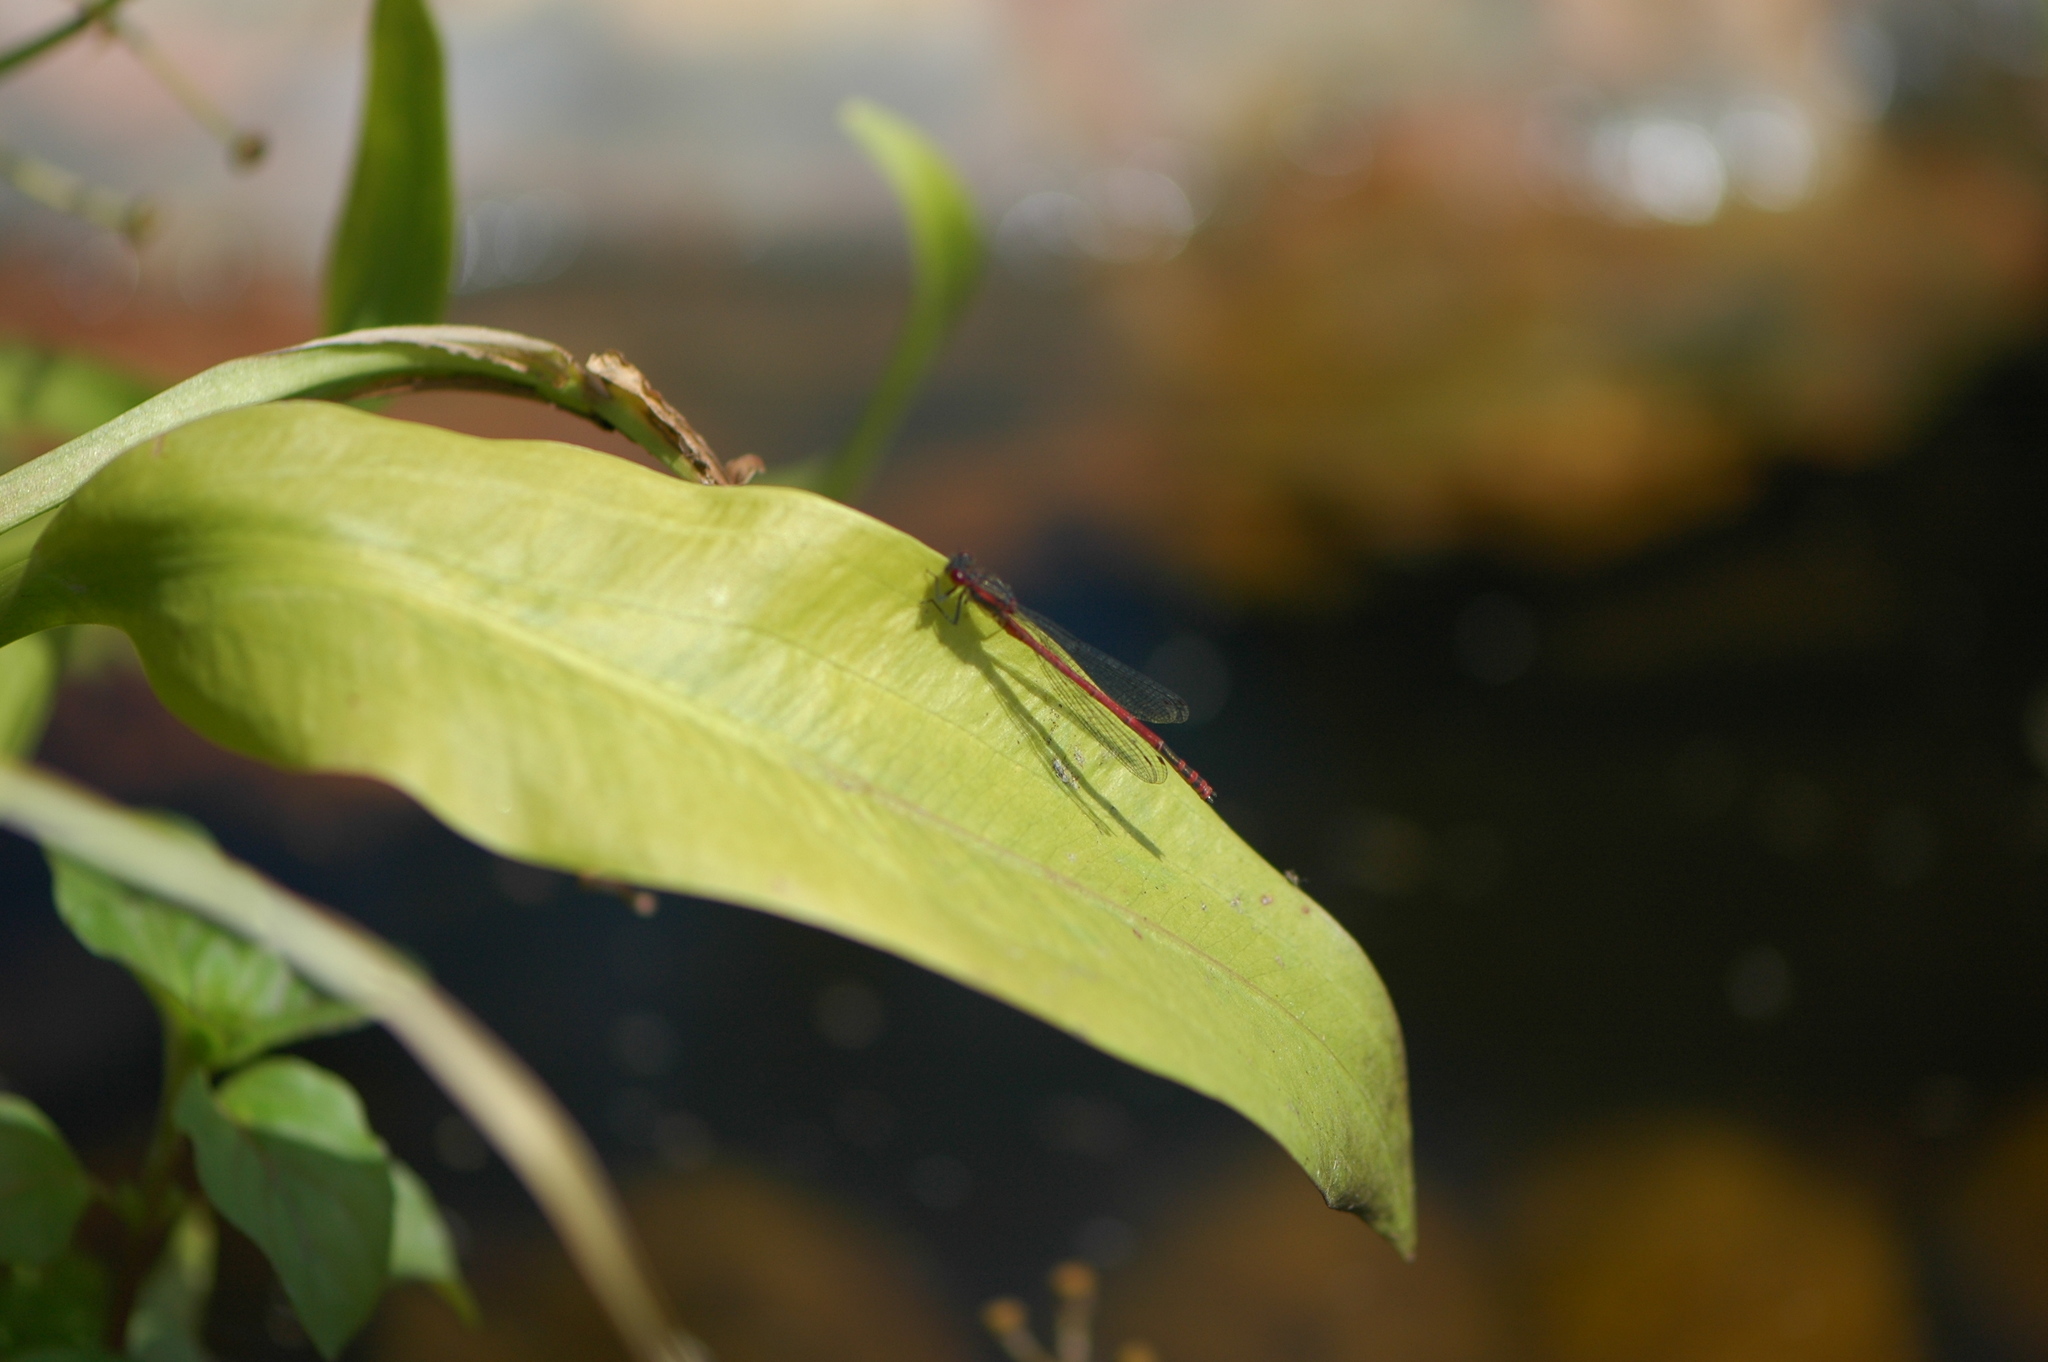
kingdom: Animalia
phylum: Arthropoda
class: Insecta
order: Odonata
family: Coenagrionidae
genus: Pyrrhosoma
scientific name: Pyrrhosoma nymphula
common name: Large red damsel
